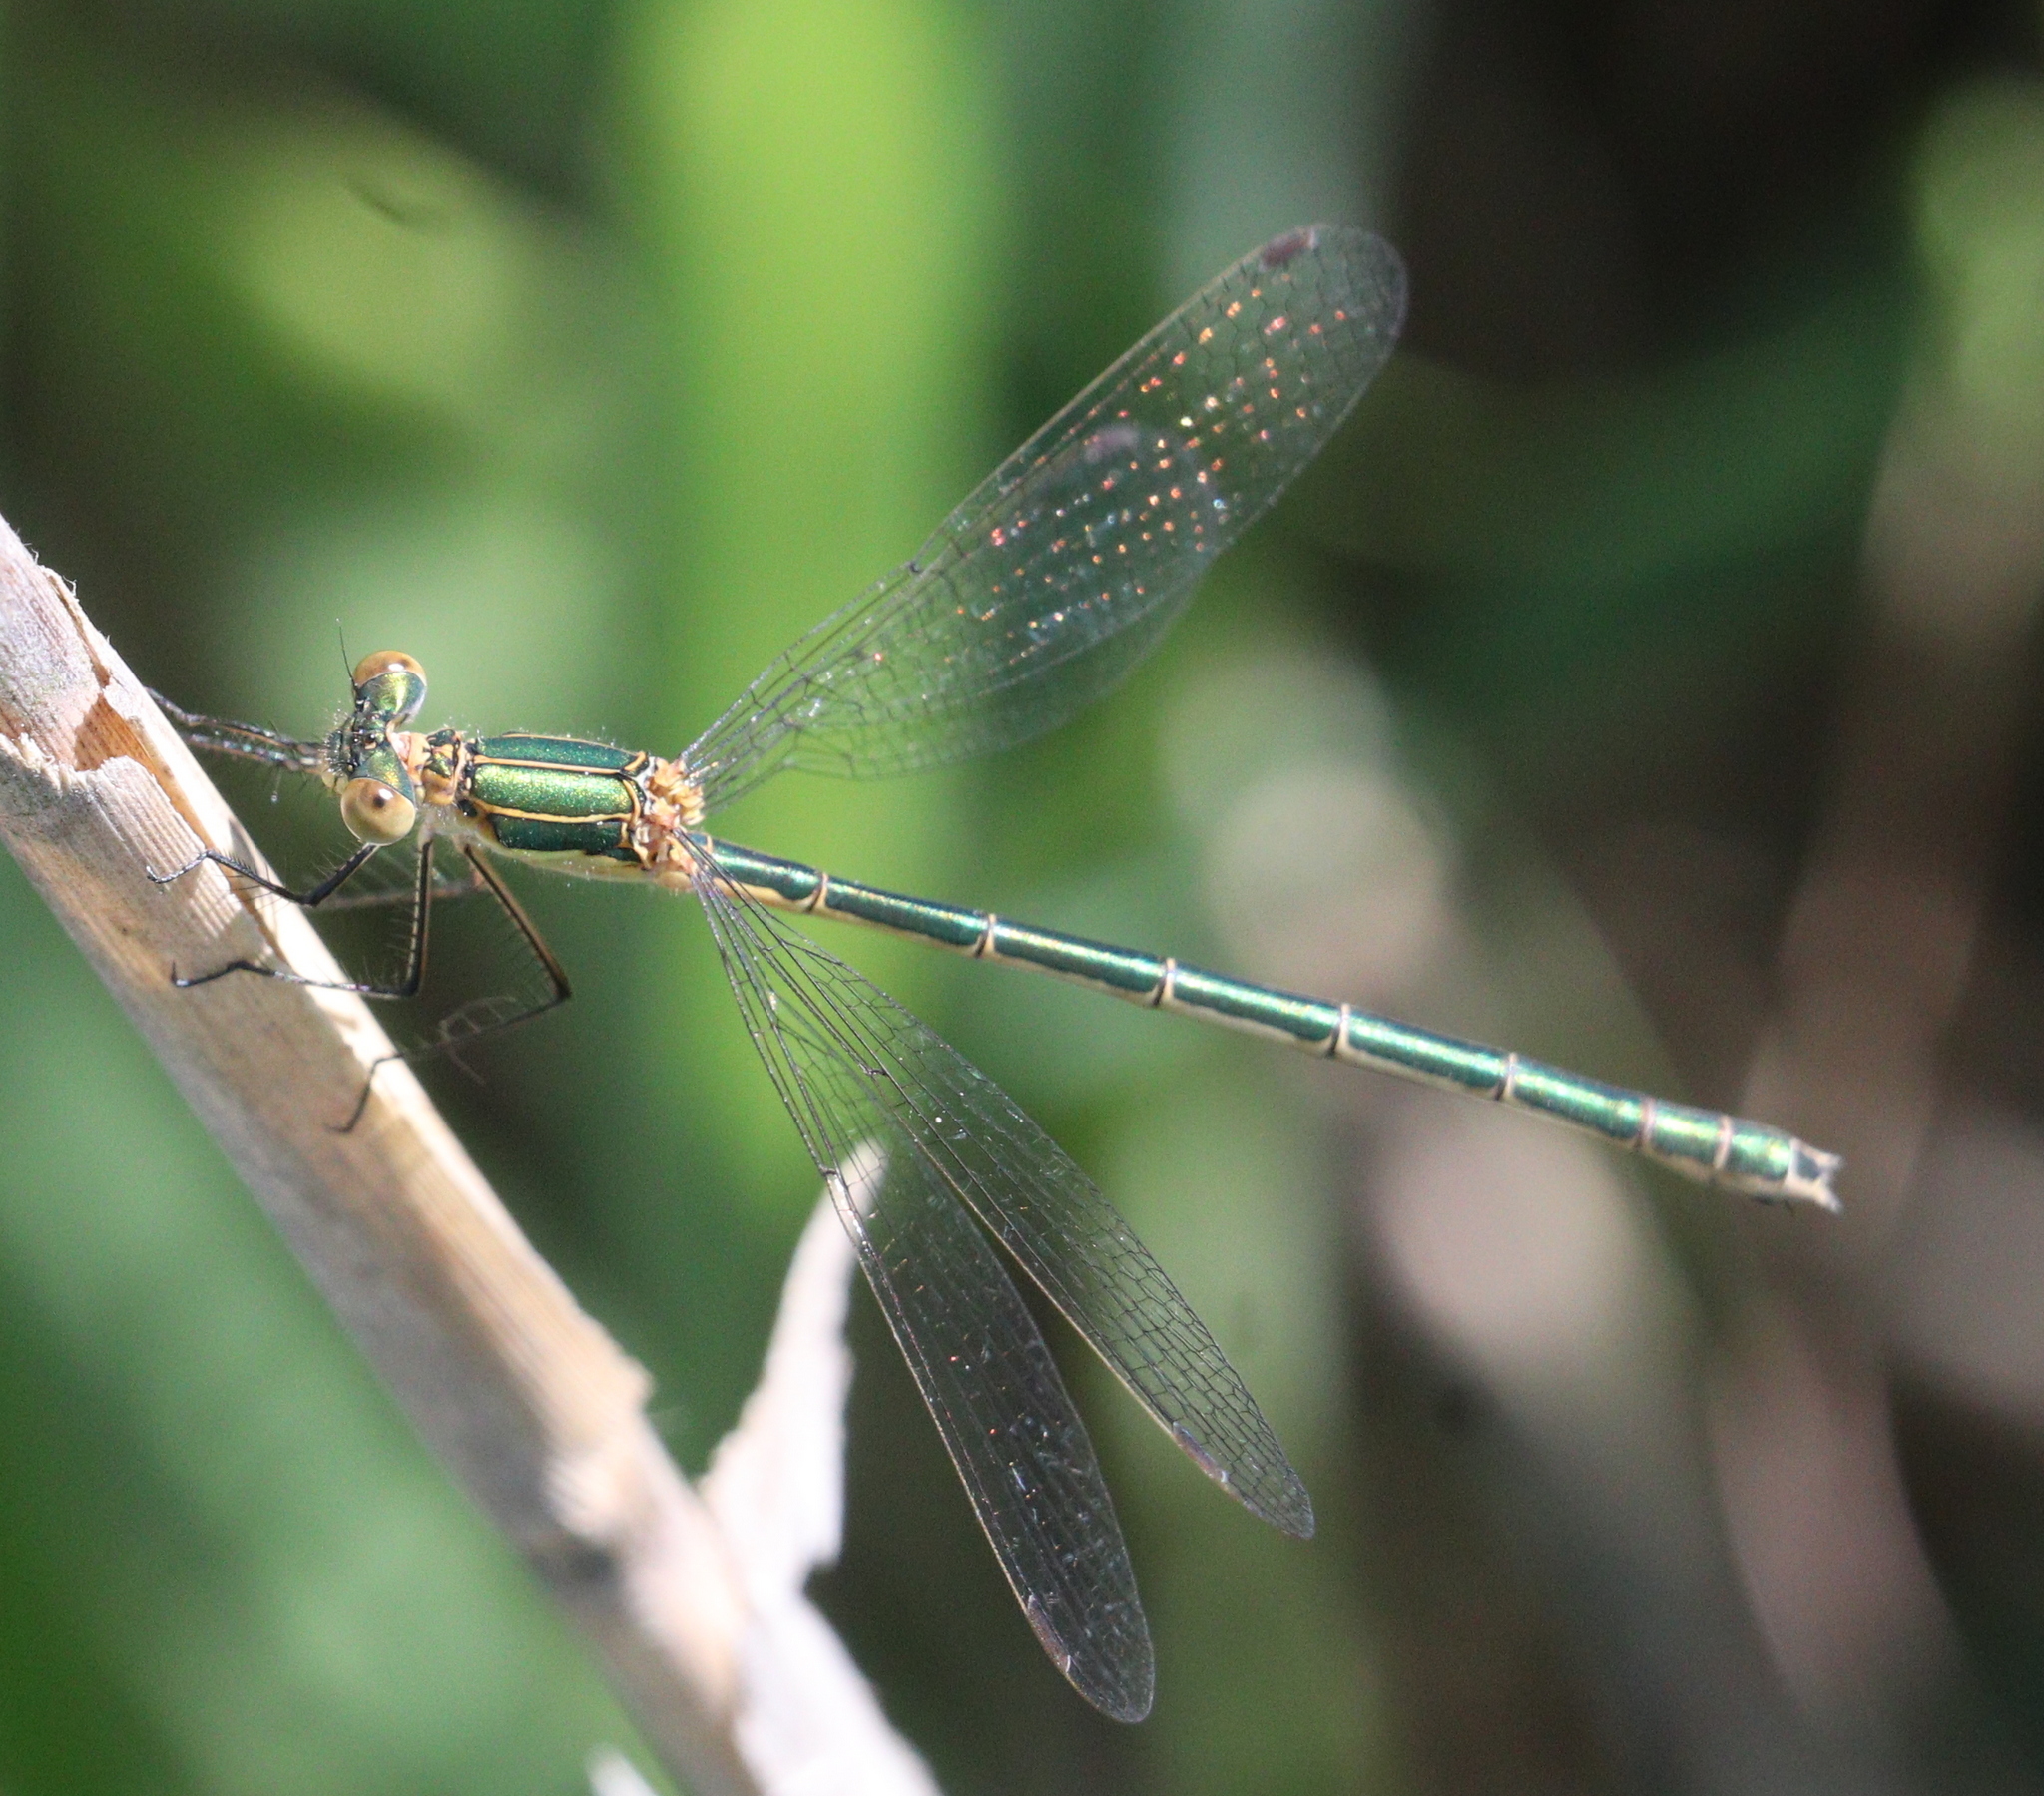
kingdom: Animalia
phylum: Arthropoda
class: Insecta
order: Odonata
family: Lestidae
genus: Lestes
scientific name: Lestes sponsa
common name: Common spreadwing
